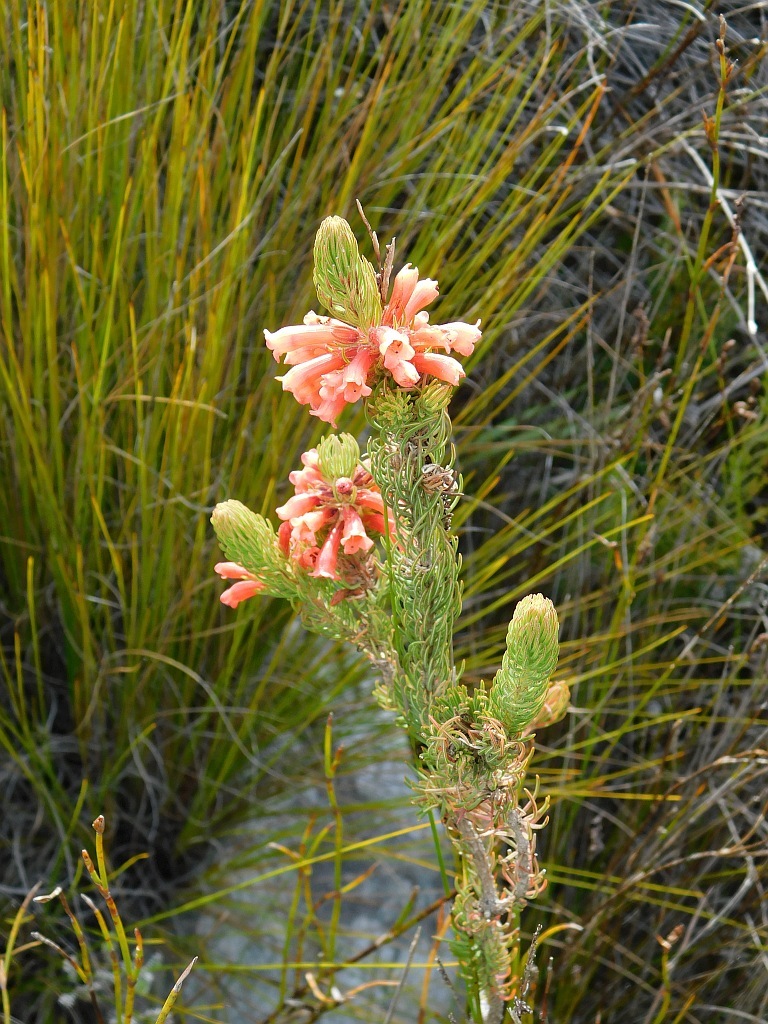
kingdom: Plantae
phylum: Tracheophyta
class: Magnoliopsida
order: Ericales
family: Ericaceae
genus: Erica
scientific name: Erica viscaria
